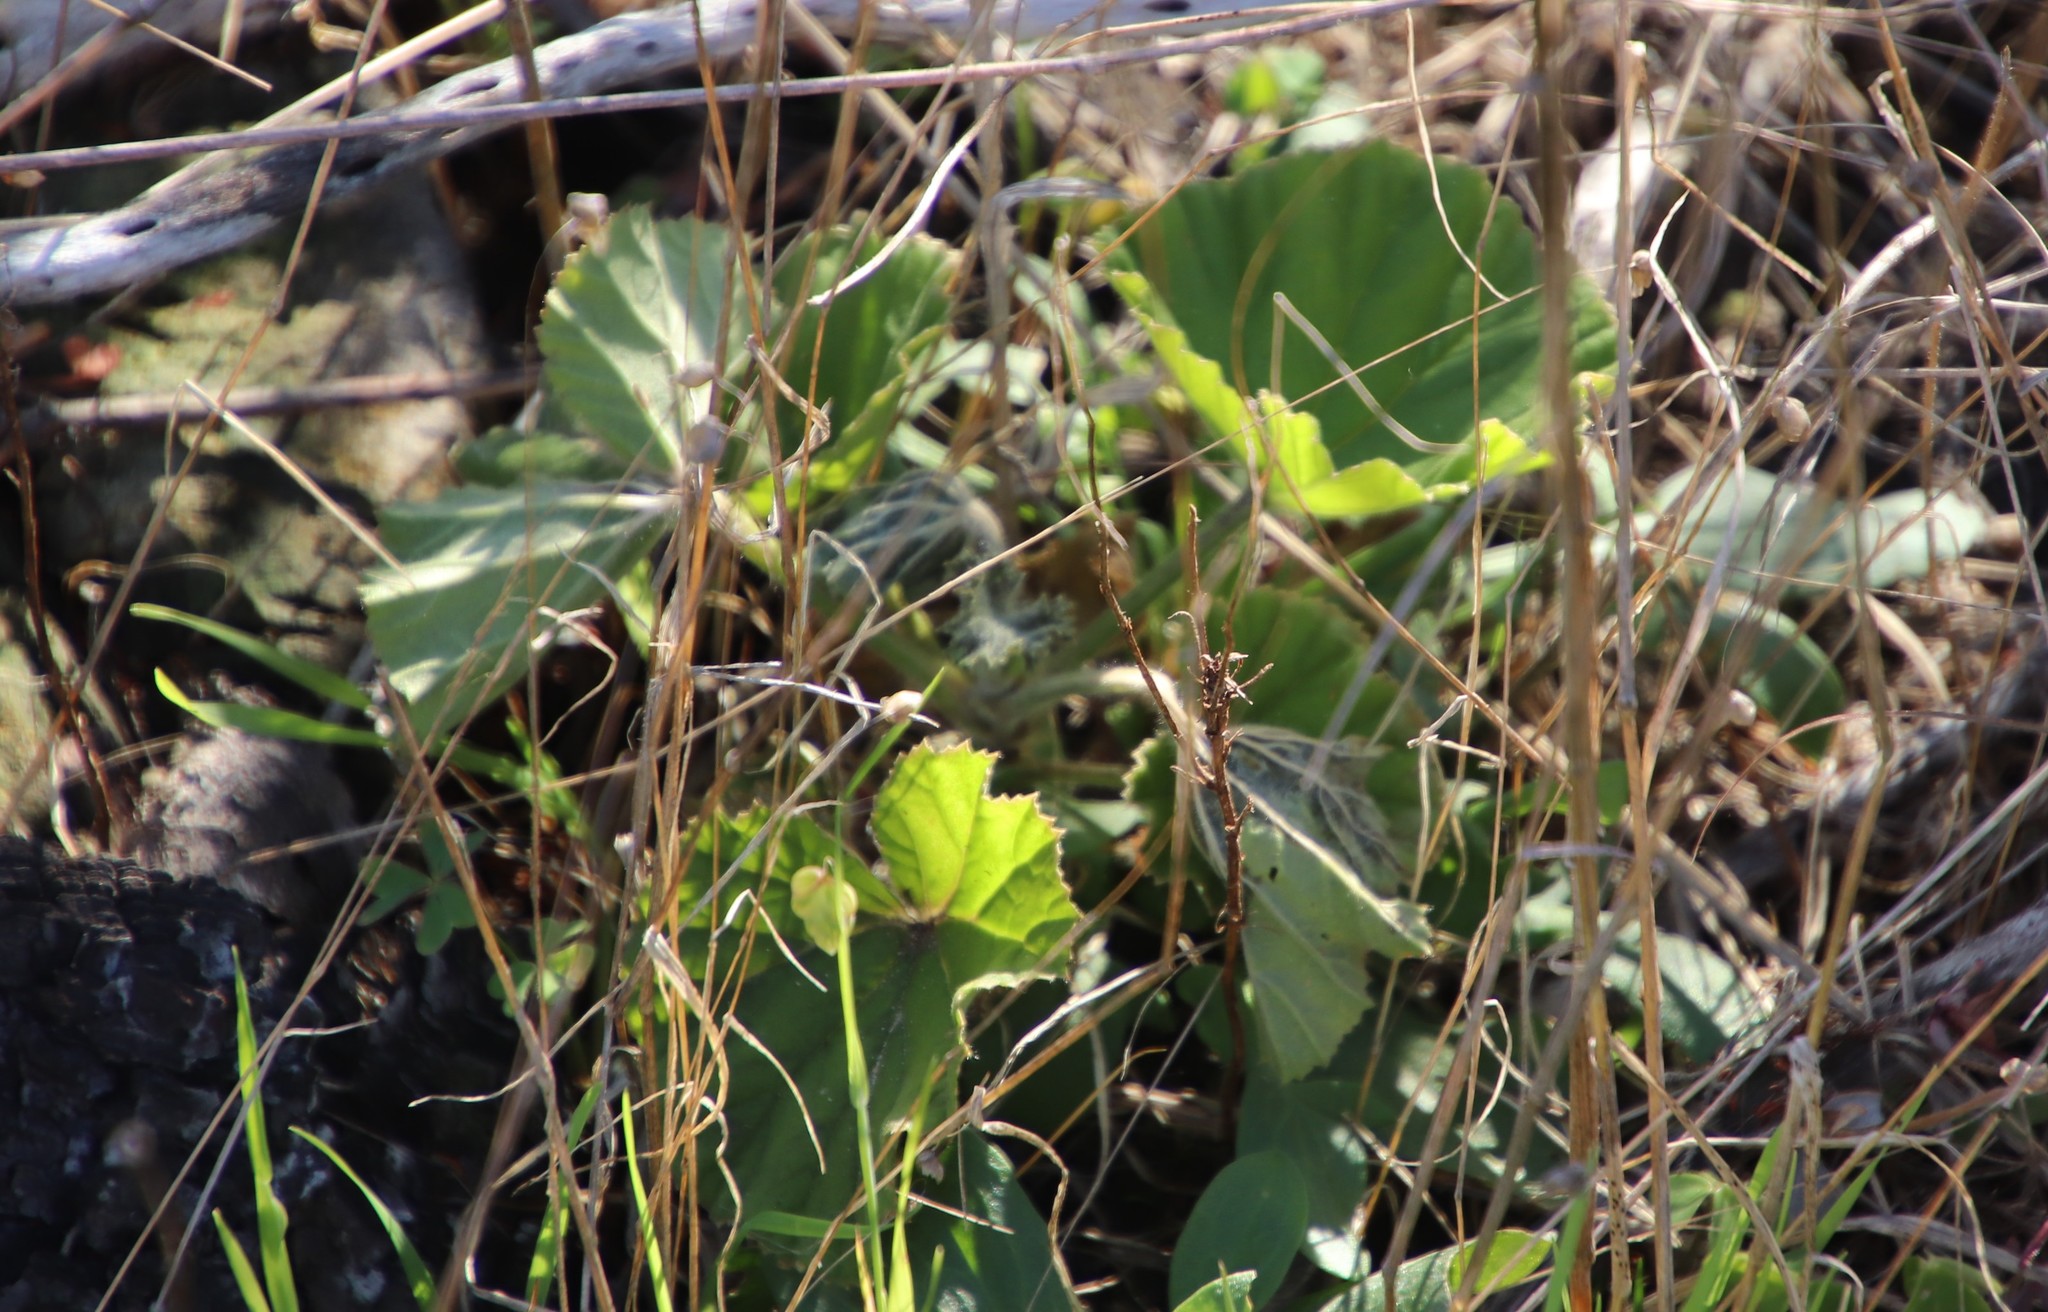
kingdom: Plantae
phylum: Tracheophyta
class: Magnoliopsida
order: Geraniales
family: Geraniaceae
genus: Pelargonium
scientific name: Pelargonium cucullatum
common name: Tree pelargonium
